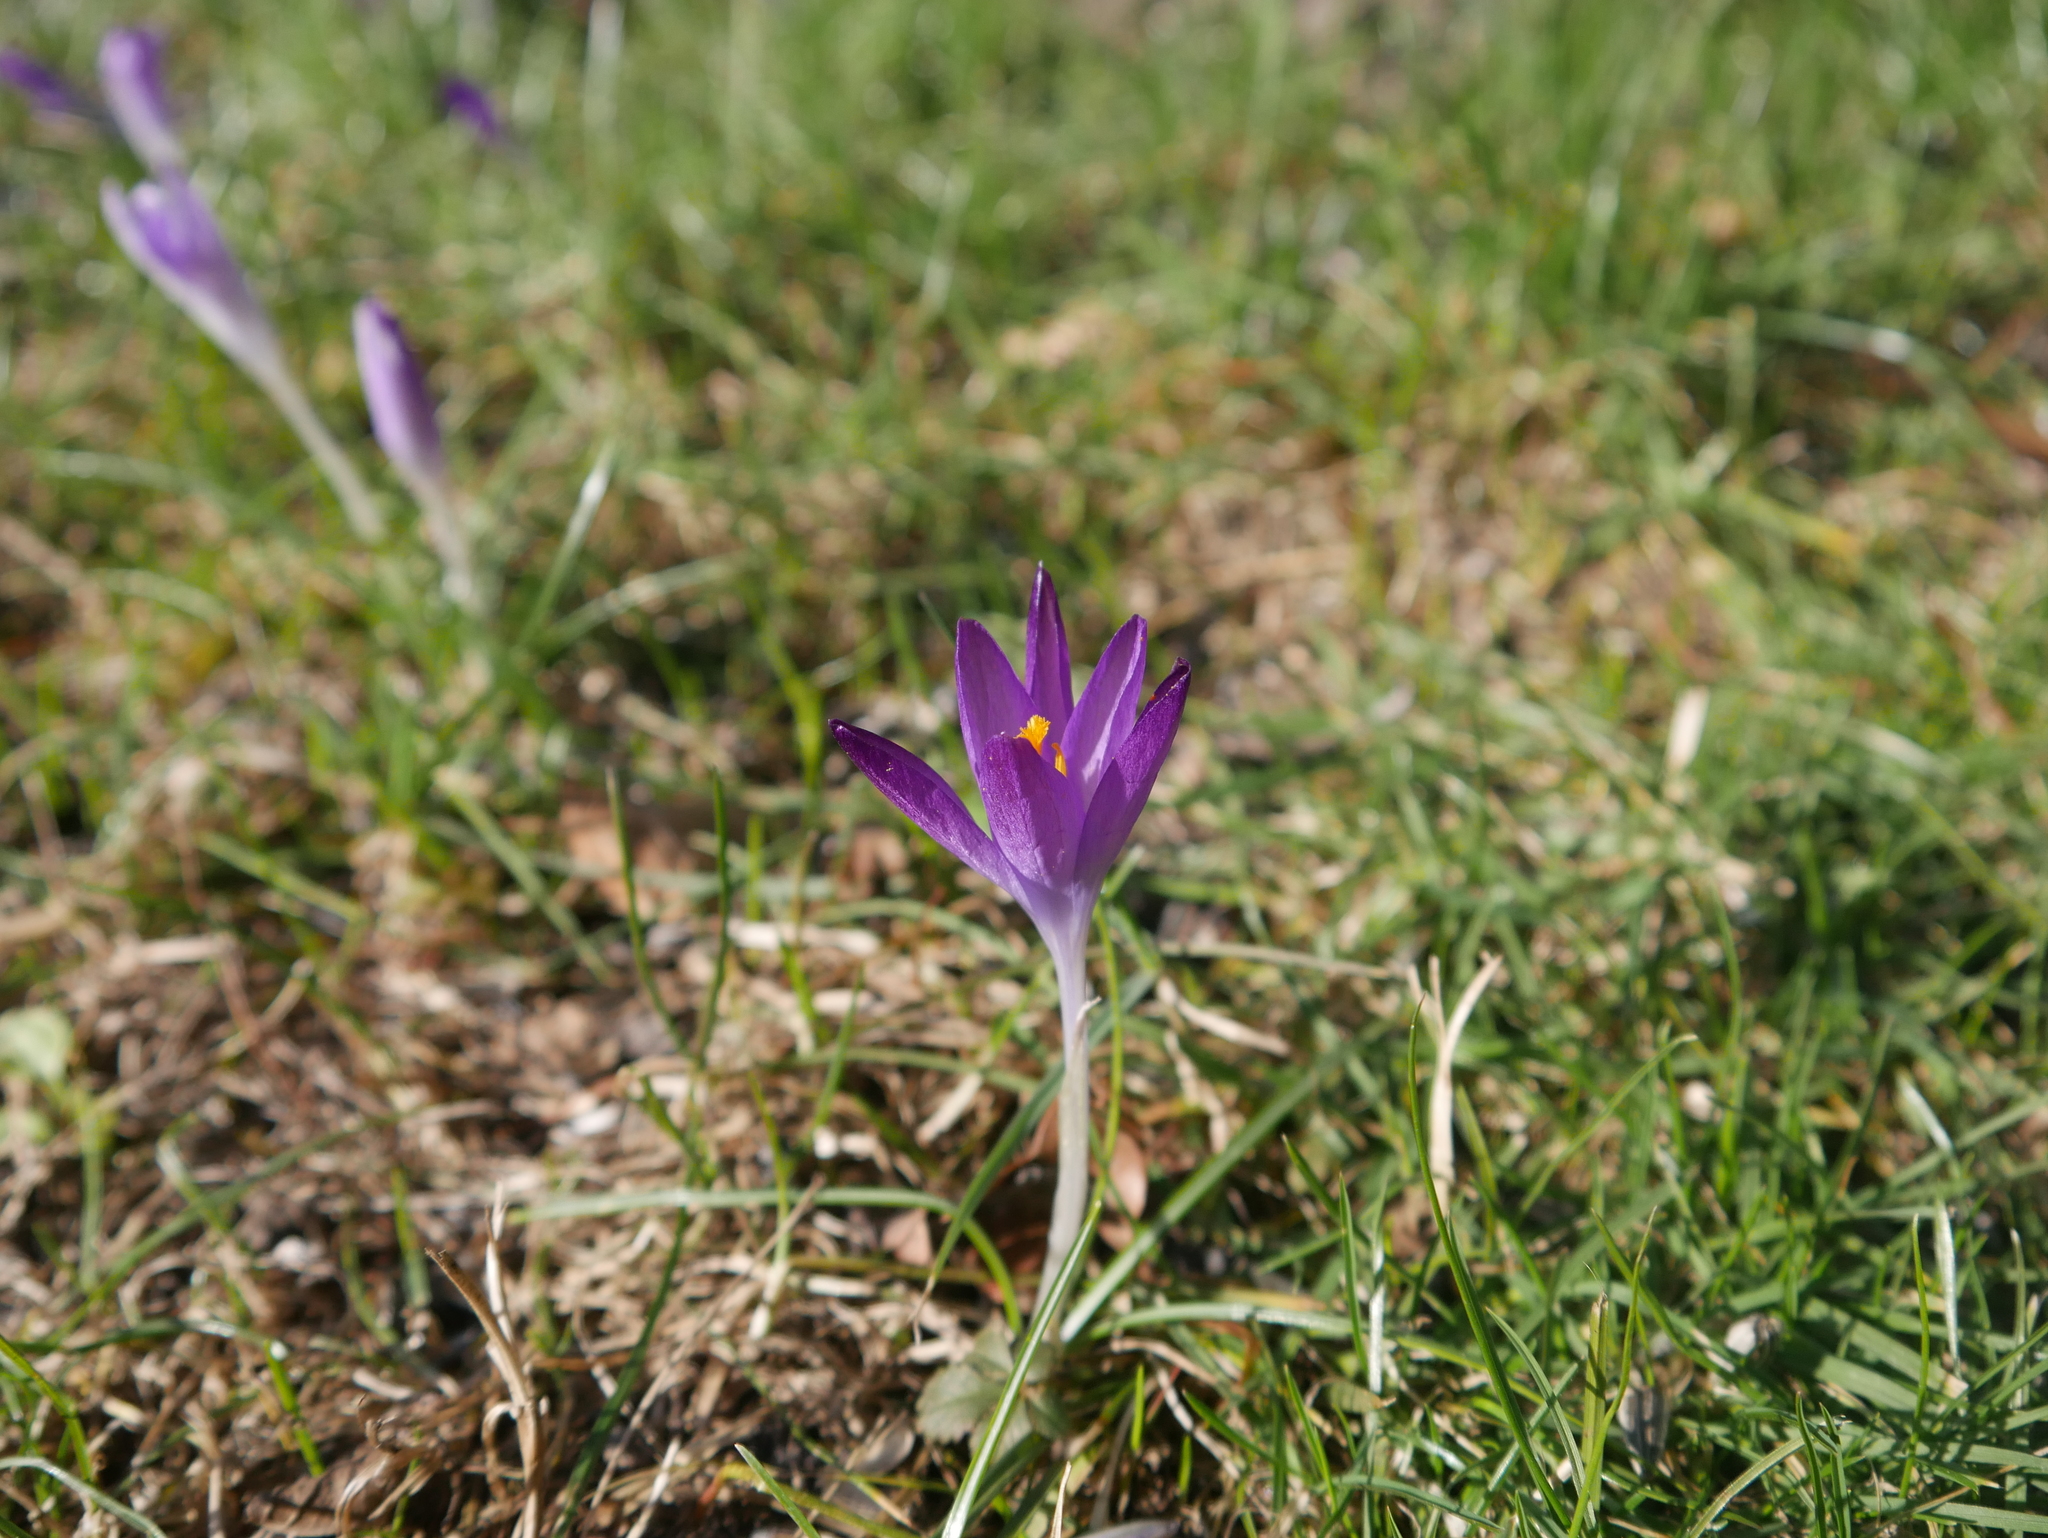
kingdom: Plantae
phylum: Tracheophyta
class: Liliopsida
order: Asparagales
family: Iridaceae
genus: Crocus
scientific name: Crocus tommasinianus
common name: Early crocus
